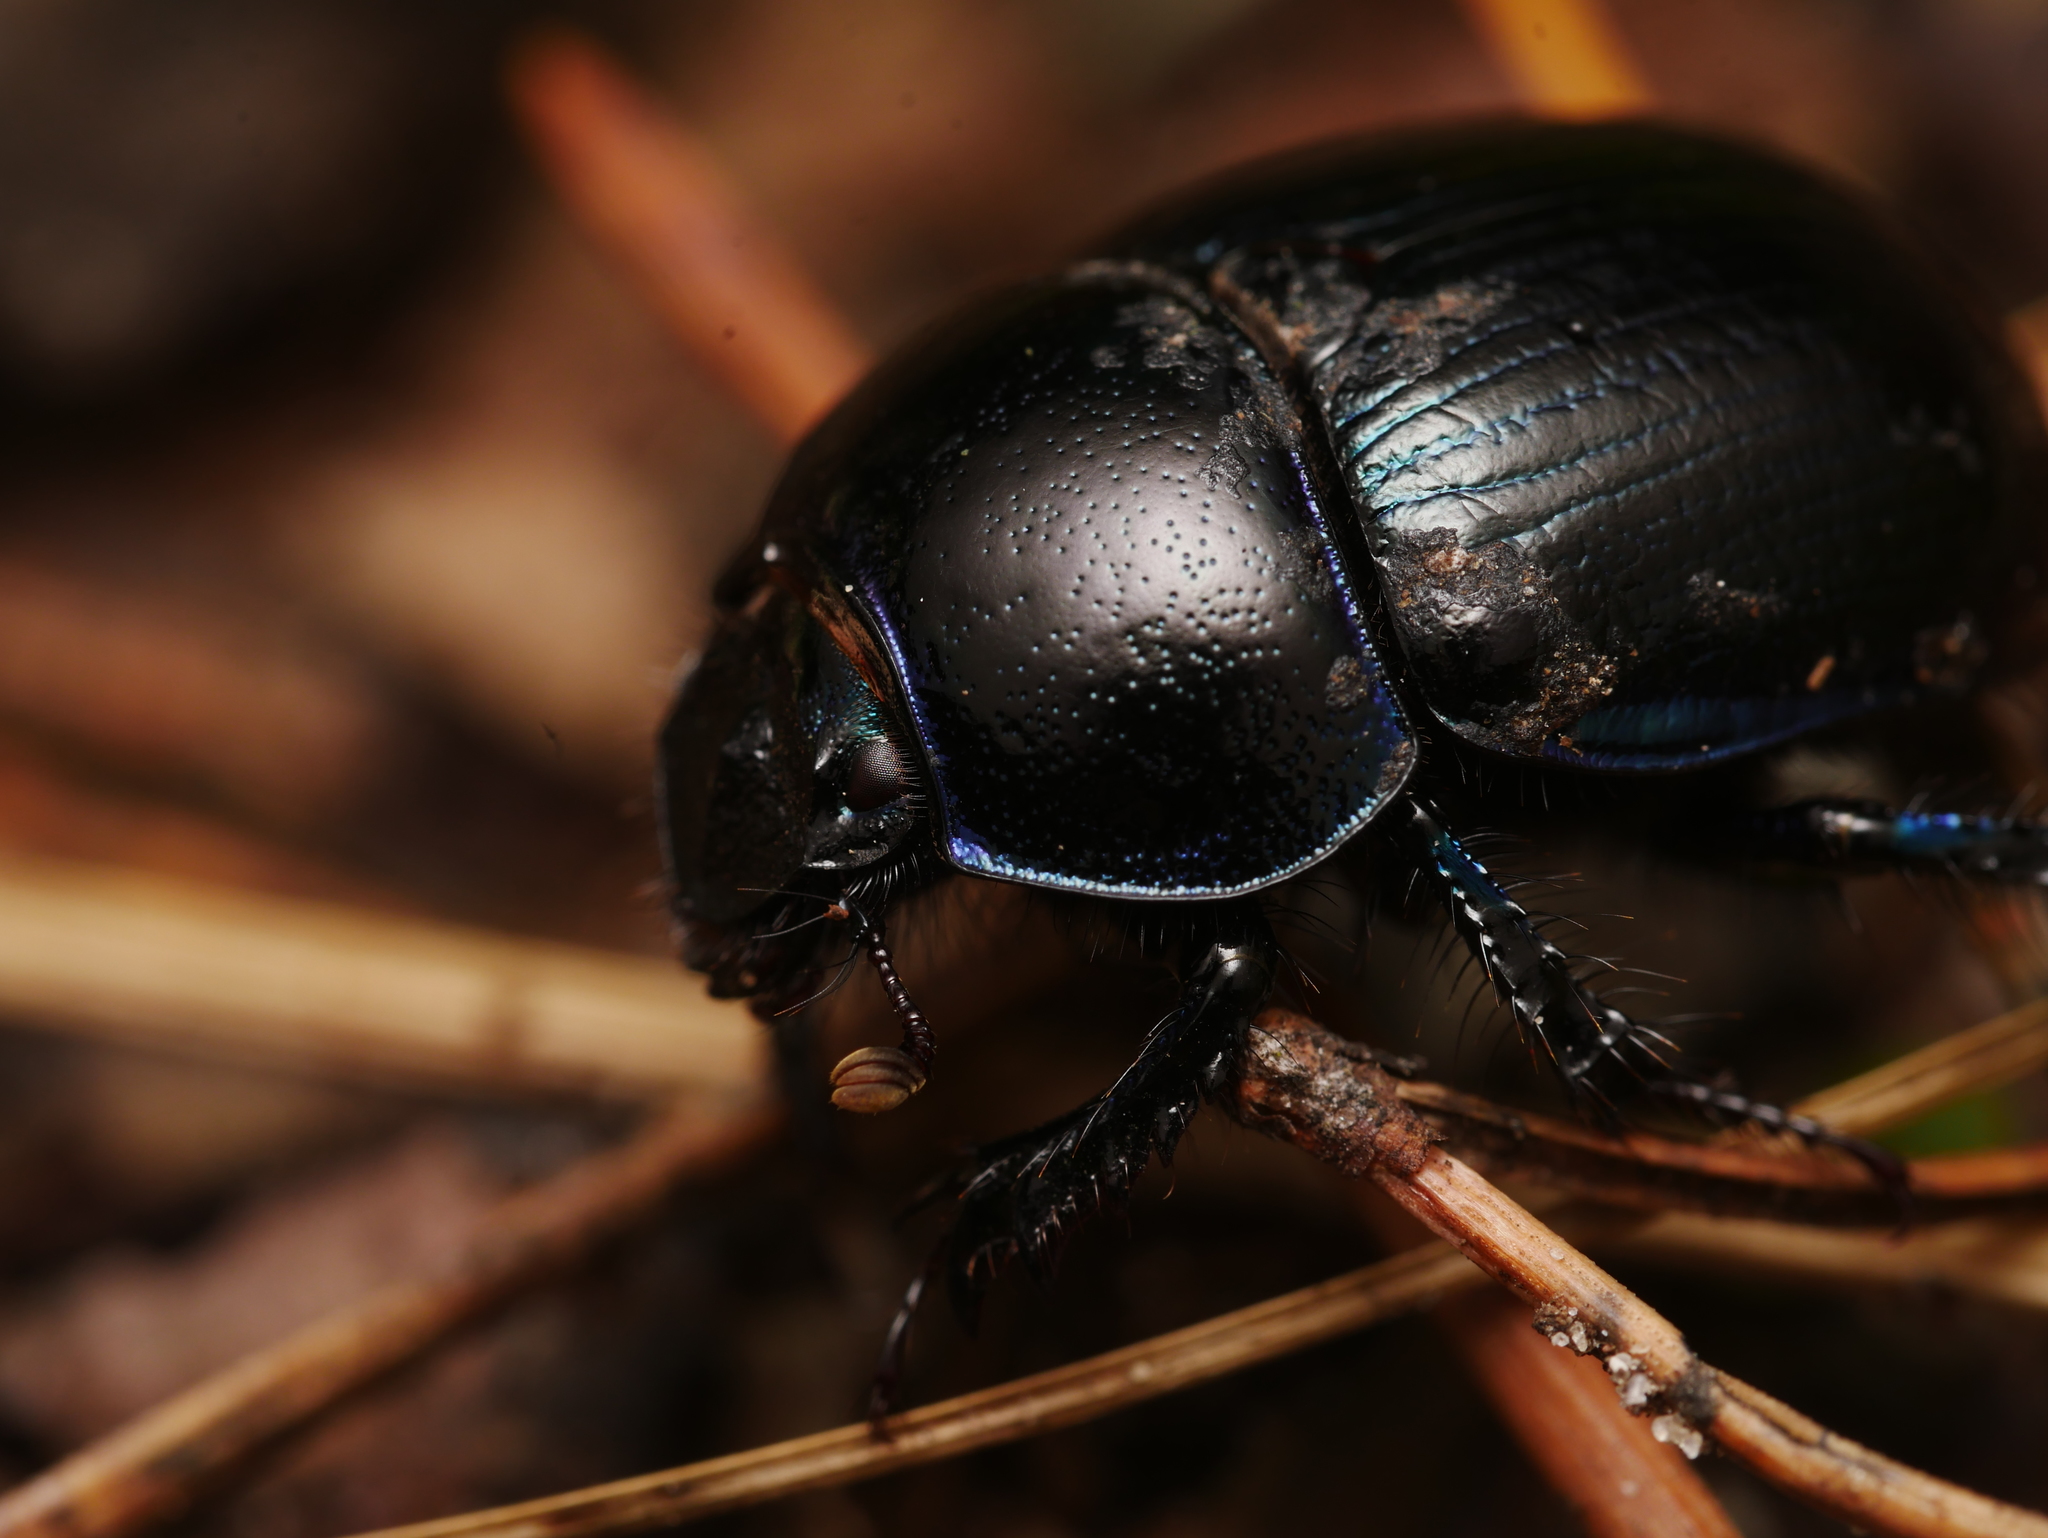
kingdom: Animalia
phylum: Arthropoda
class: Insecta
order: Coleoptera
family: Geotrupidae
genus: Anoplotrupes
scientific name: Anoplotrupes stercorosus
